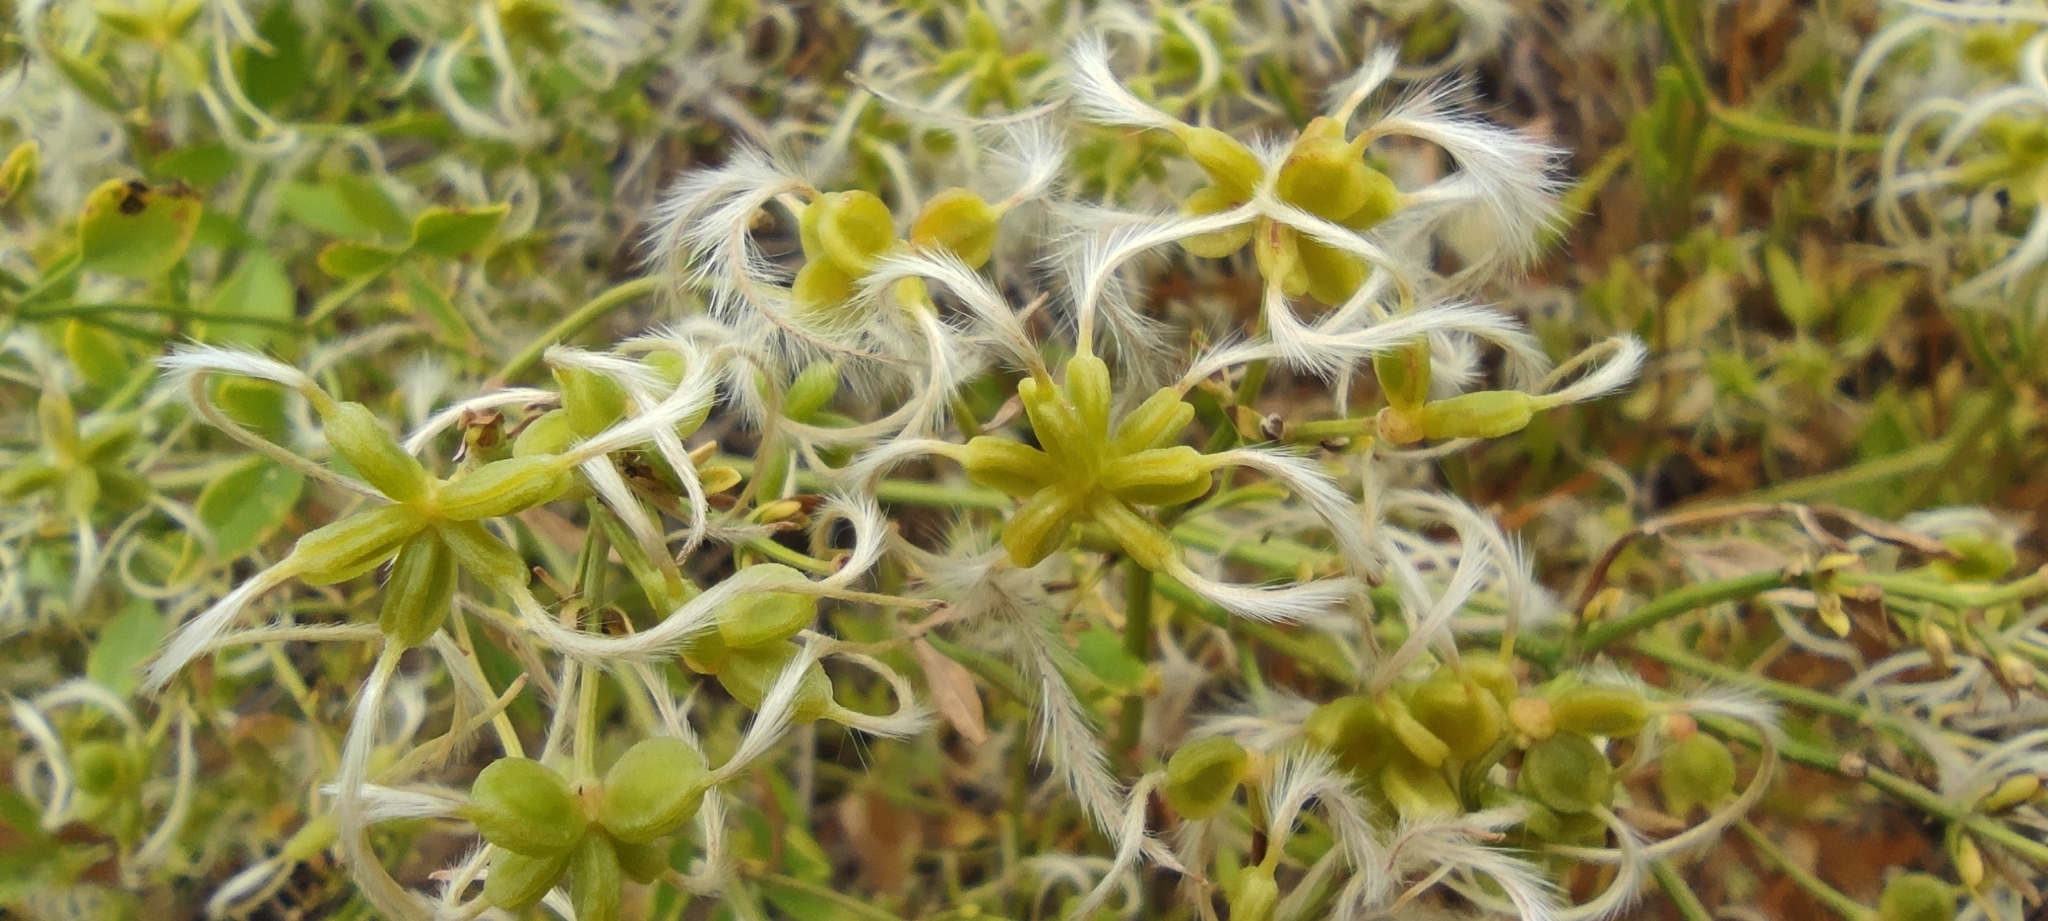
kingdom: Plantae
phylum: Tracheophyta
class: Magnoliopsida
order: Ranunculales
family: Ranunculaceae
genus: Clematis
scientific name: Clematis flammula
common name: Virgin's-bower
